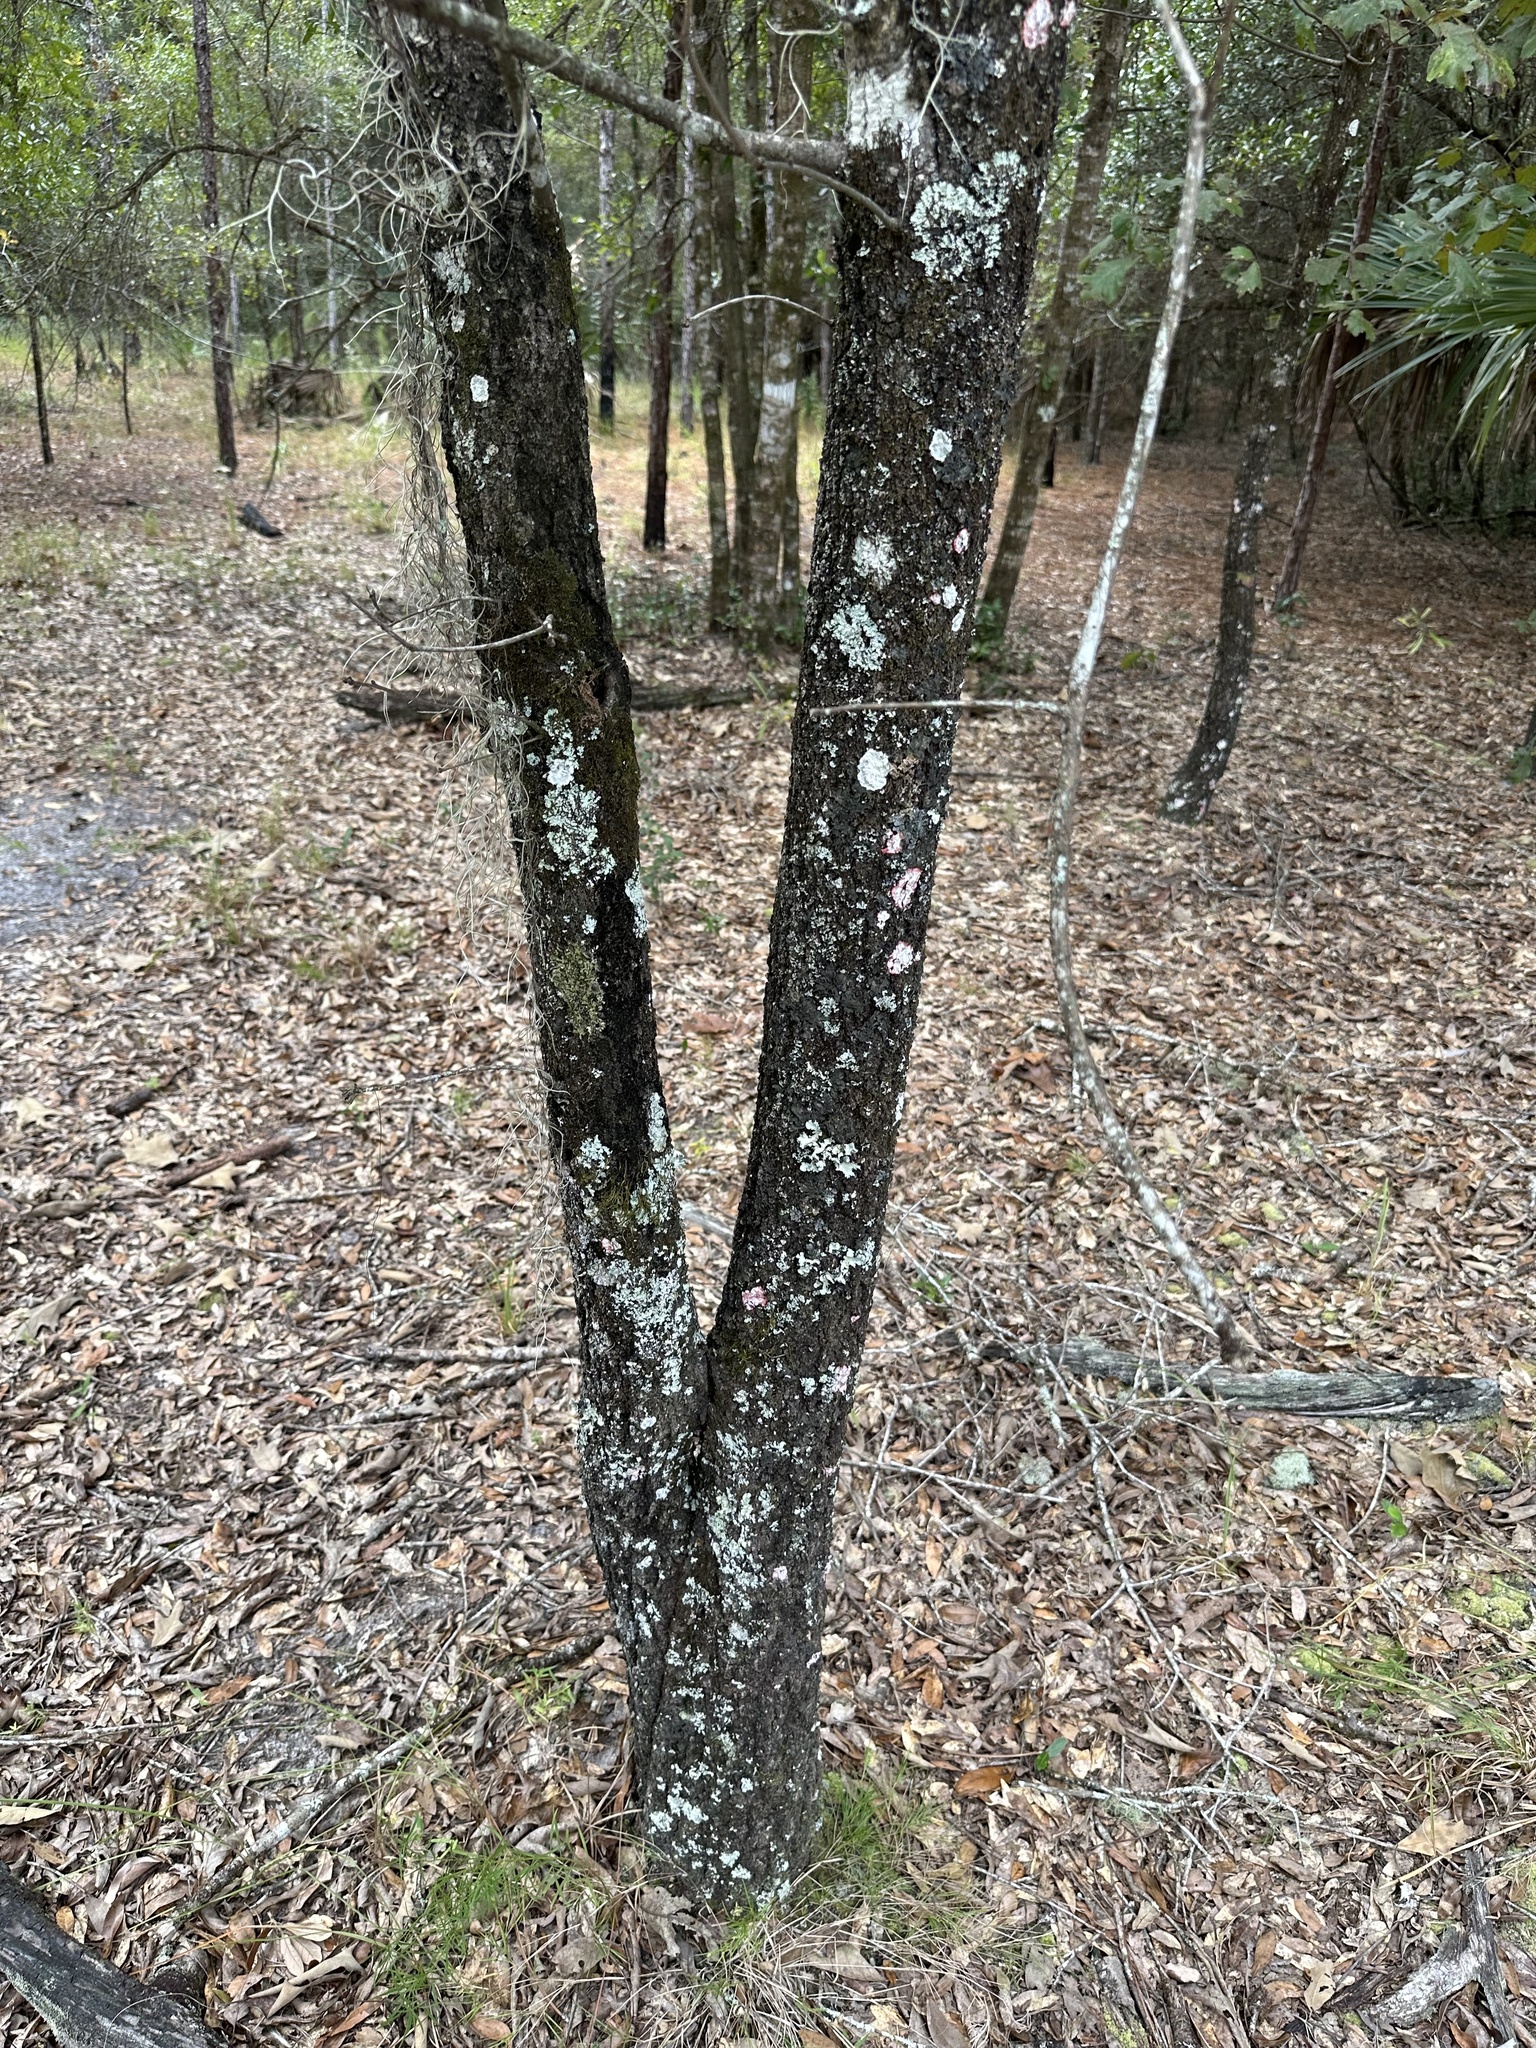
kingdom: Plantae
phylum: Tracheophyta
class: Magnoliopsida
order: Fagales
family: Fagaceae
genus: Quercus
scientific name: Quercus falcata
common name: Southern red oak
